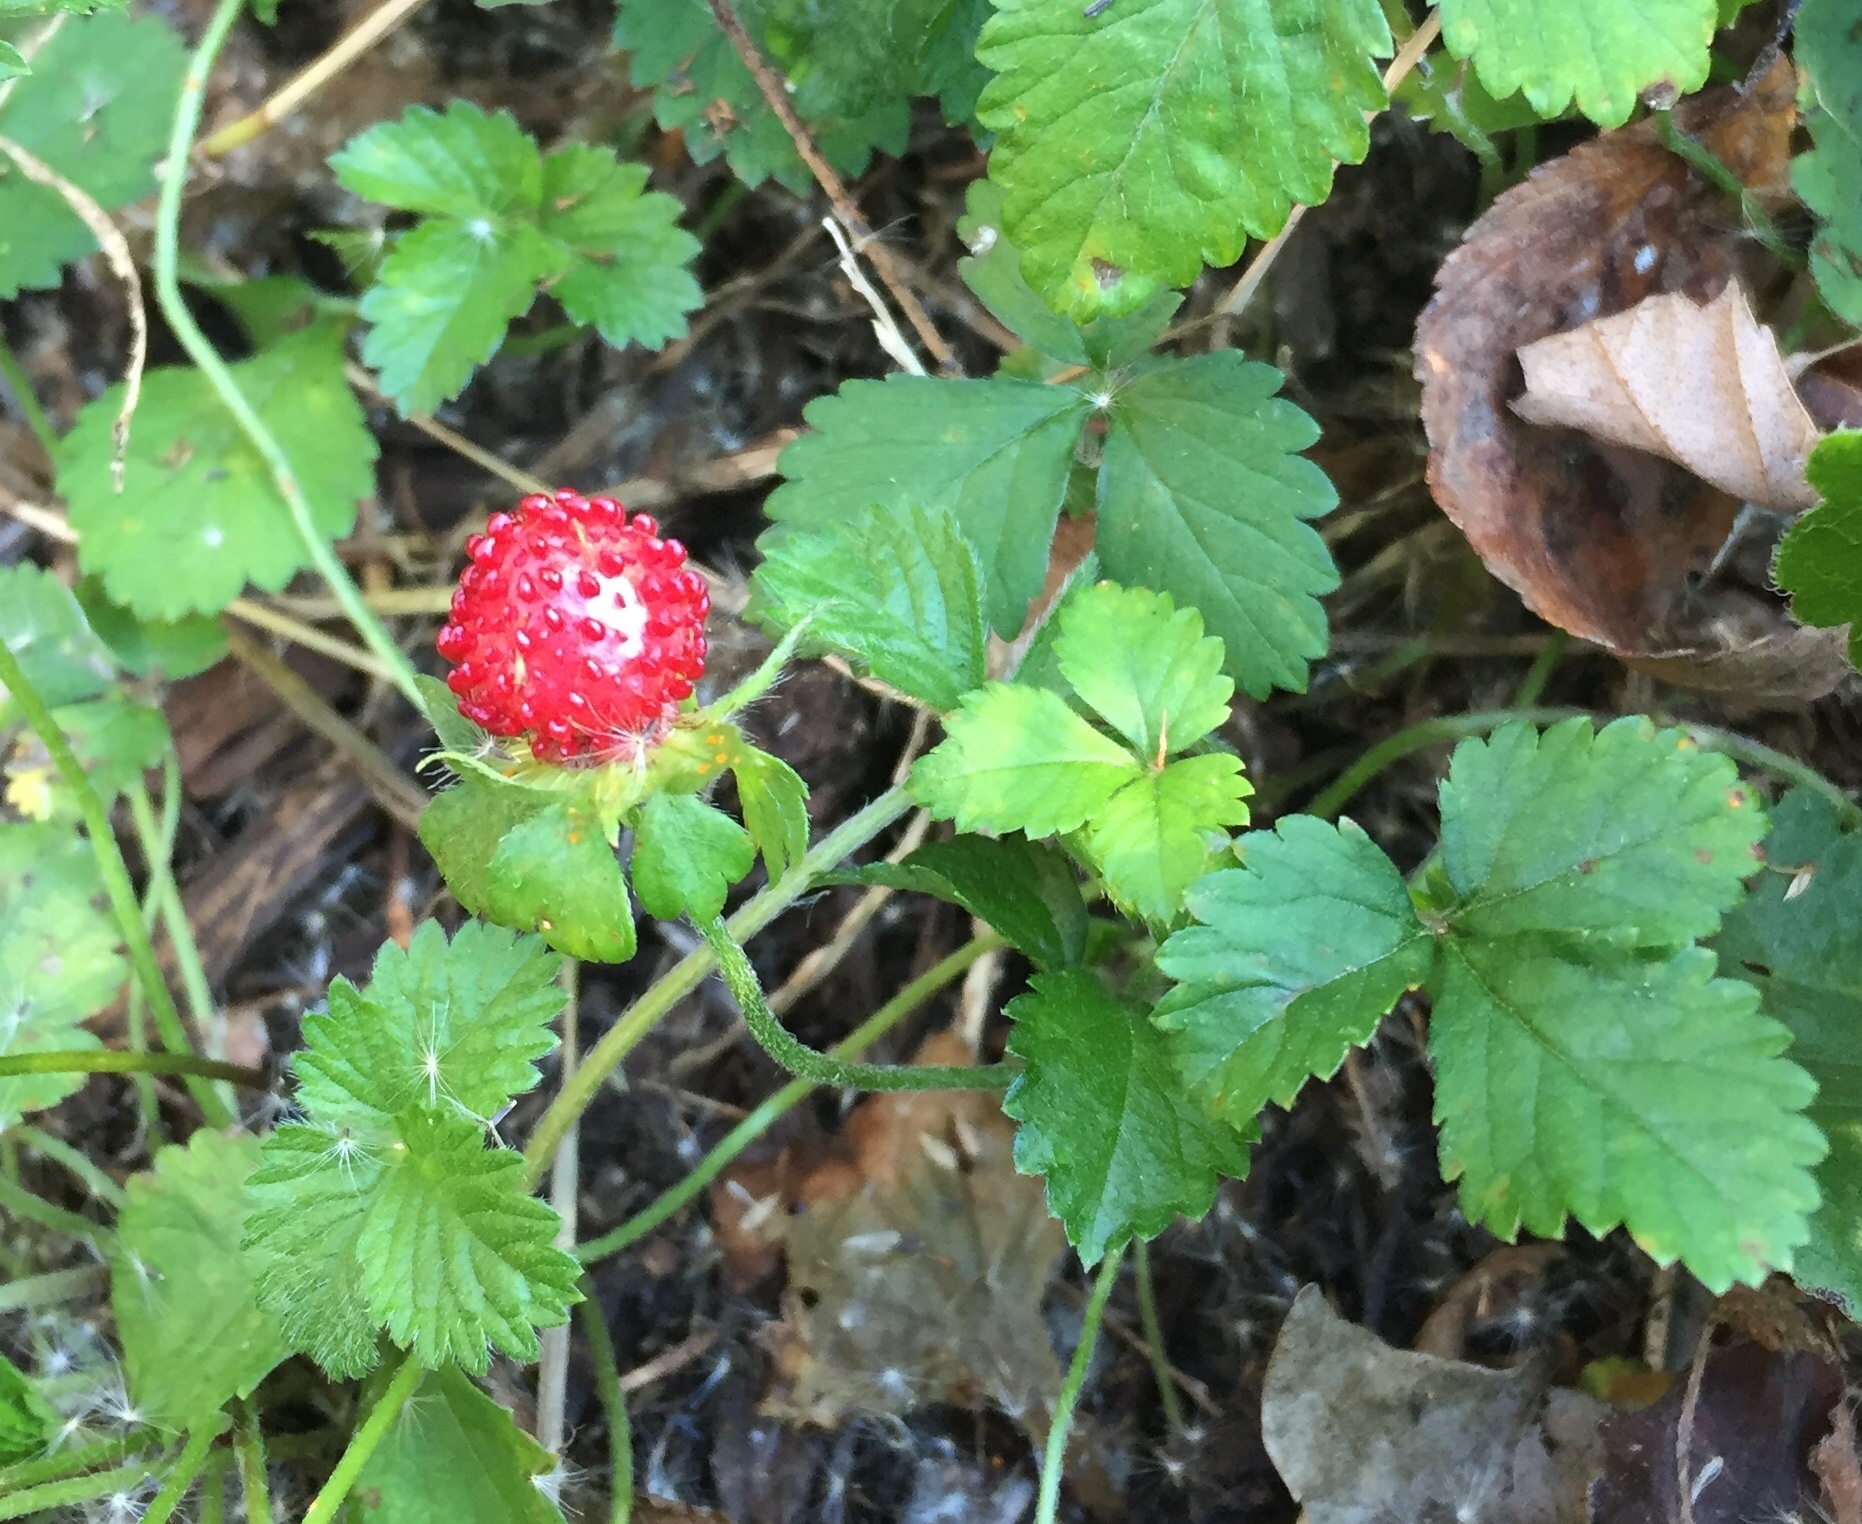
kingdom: Plantae
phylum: Tracheophyta
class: Magnoliopsida
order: Rosales
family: Rosaceae
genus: Potentilla
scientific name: Potentilla indica
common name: Yellow-flowered strawberry
